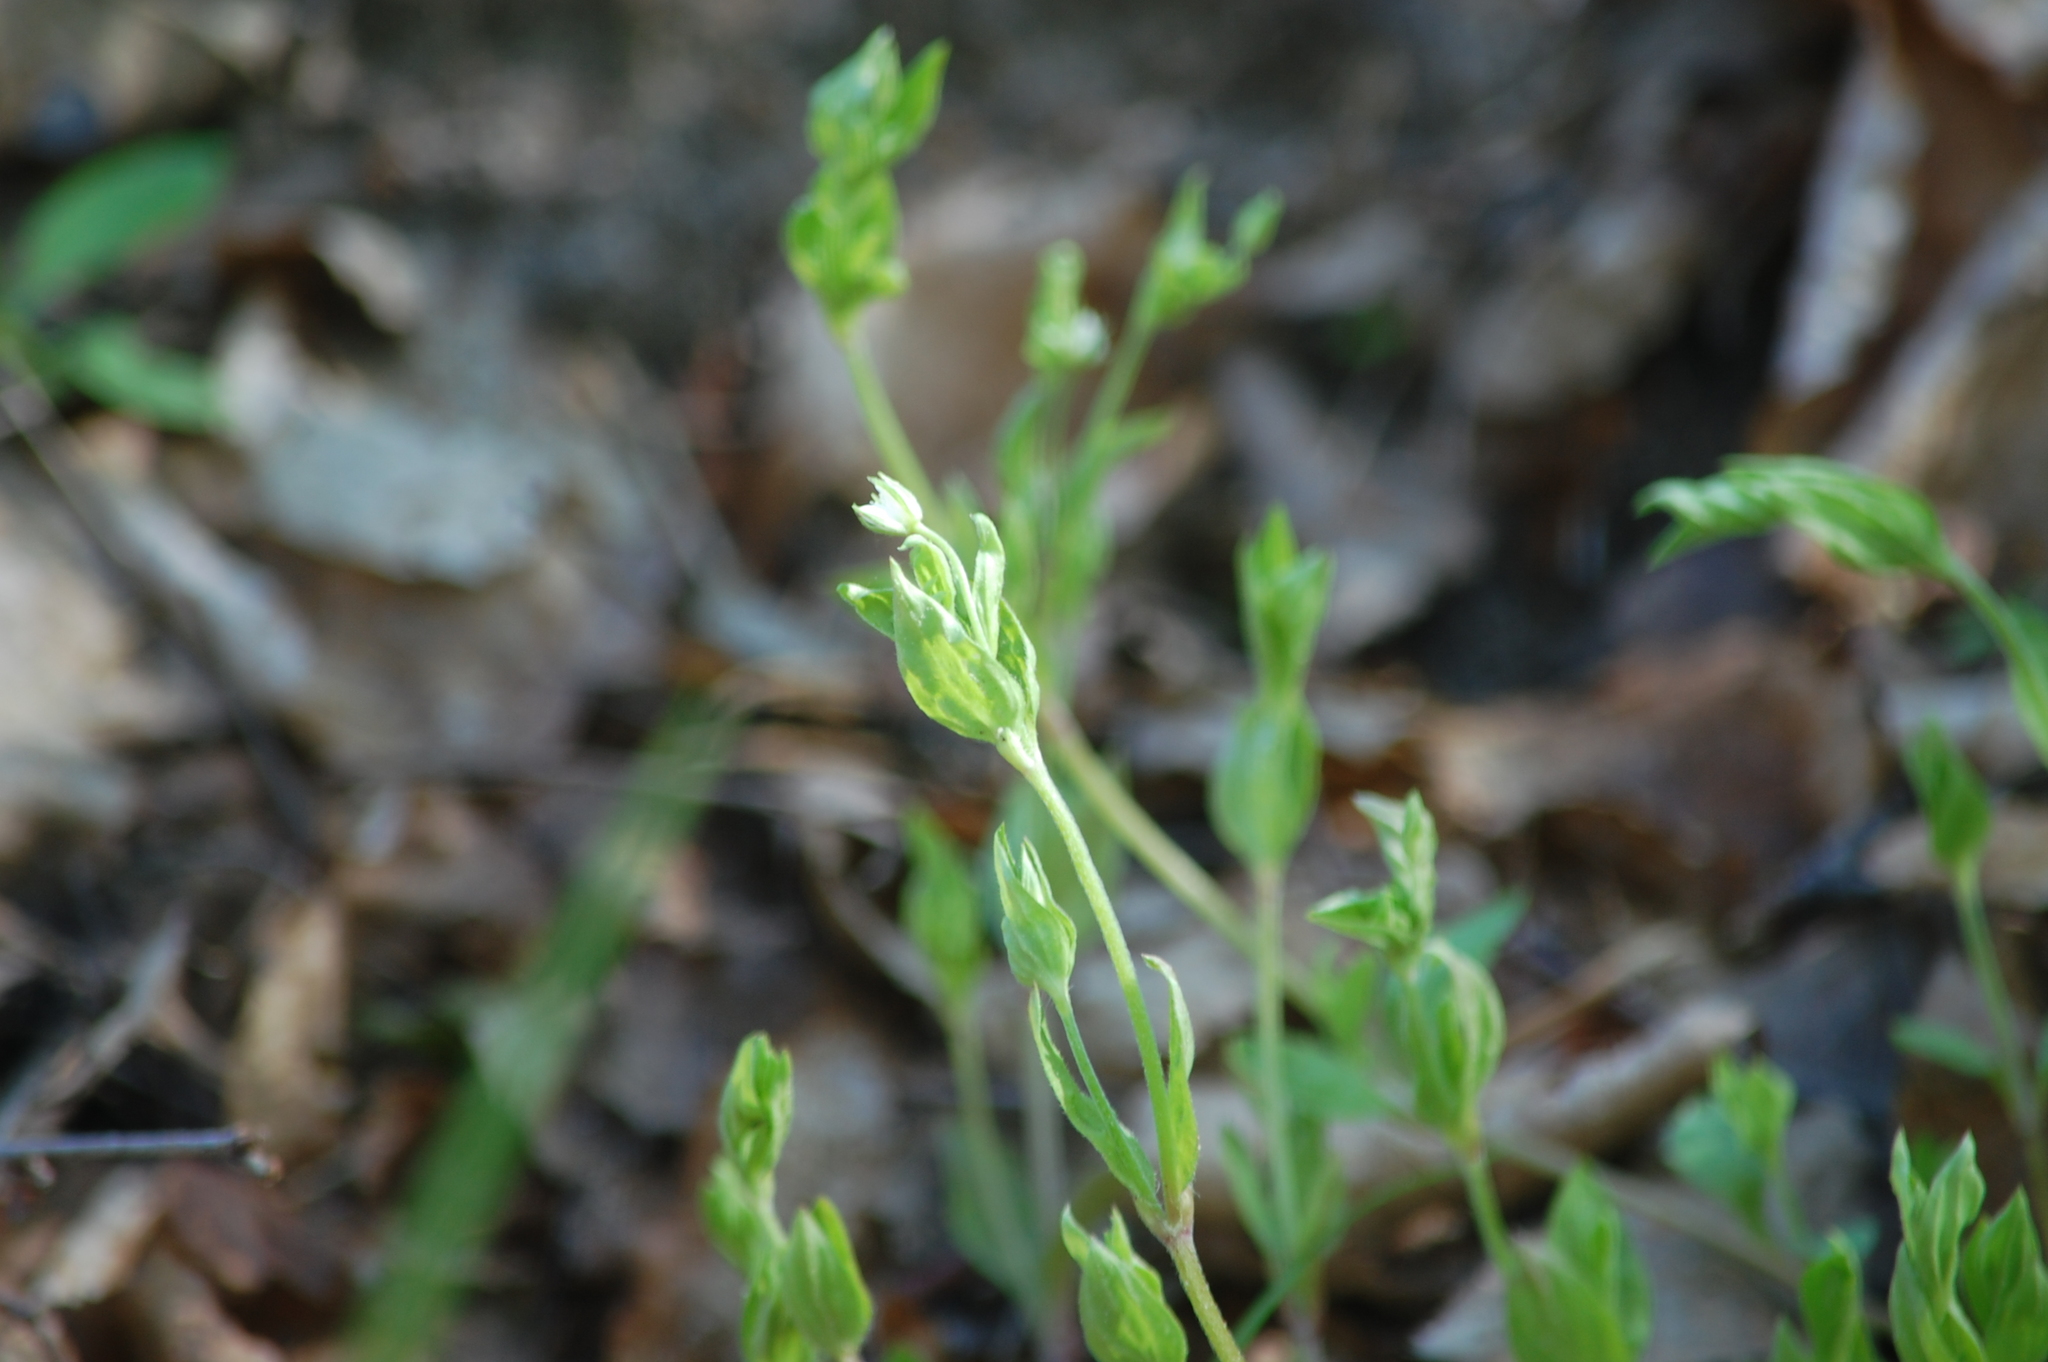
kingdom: Plantae
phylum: Tracheophyta
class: Magnoliopsida
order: Caryophyllales
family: Caryophyllaceae
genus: Moehringia
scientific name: Moehringia trinervia
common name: Three-nerved sandwort
